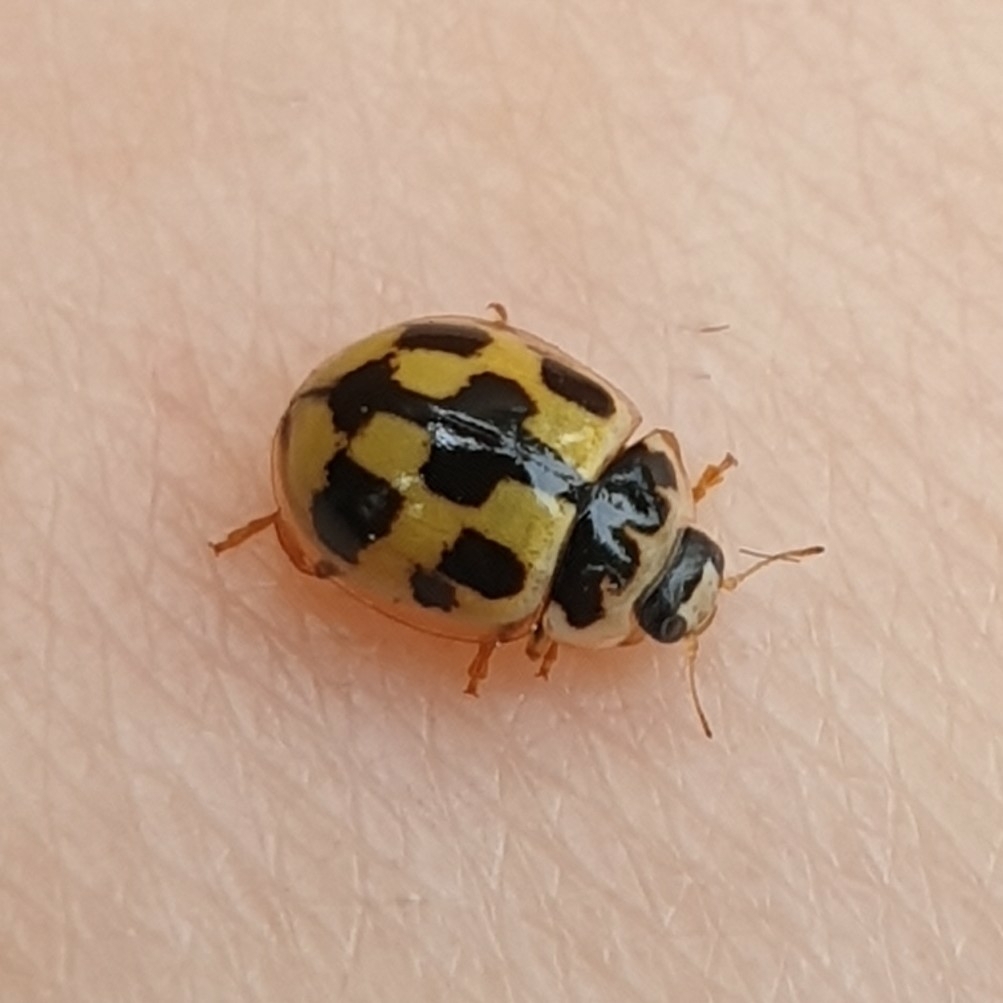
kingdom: Animalia
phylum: Arthropoda
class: Insecta
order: Coleoptera
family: Coccinellidae
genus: Propylaea
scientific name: Propylaea quatuordecimpunctata
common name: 14-spotted ladybird beetle
